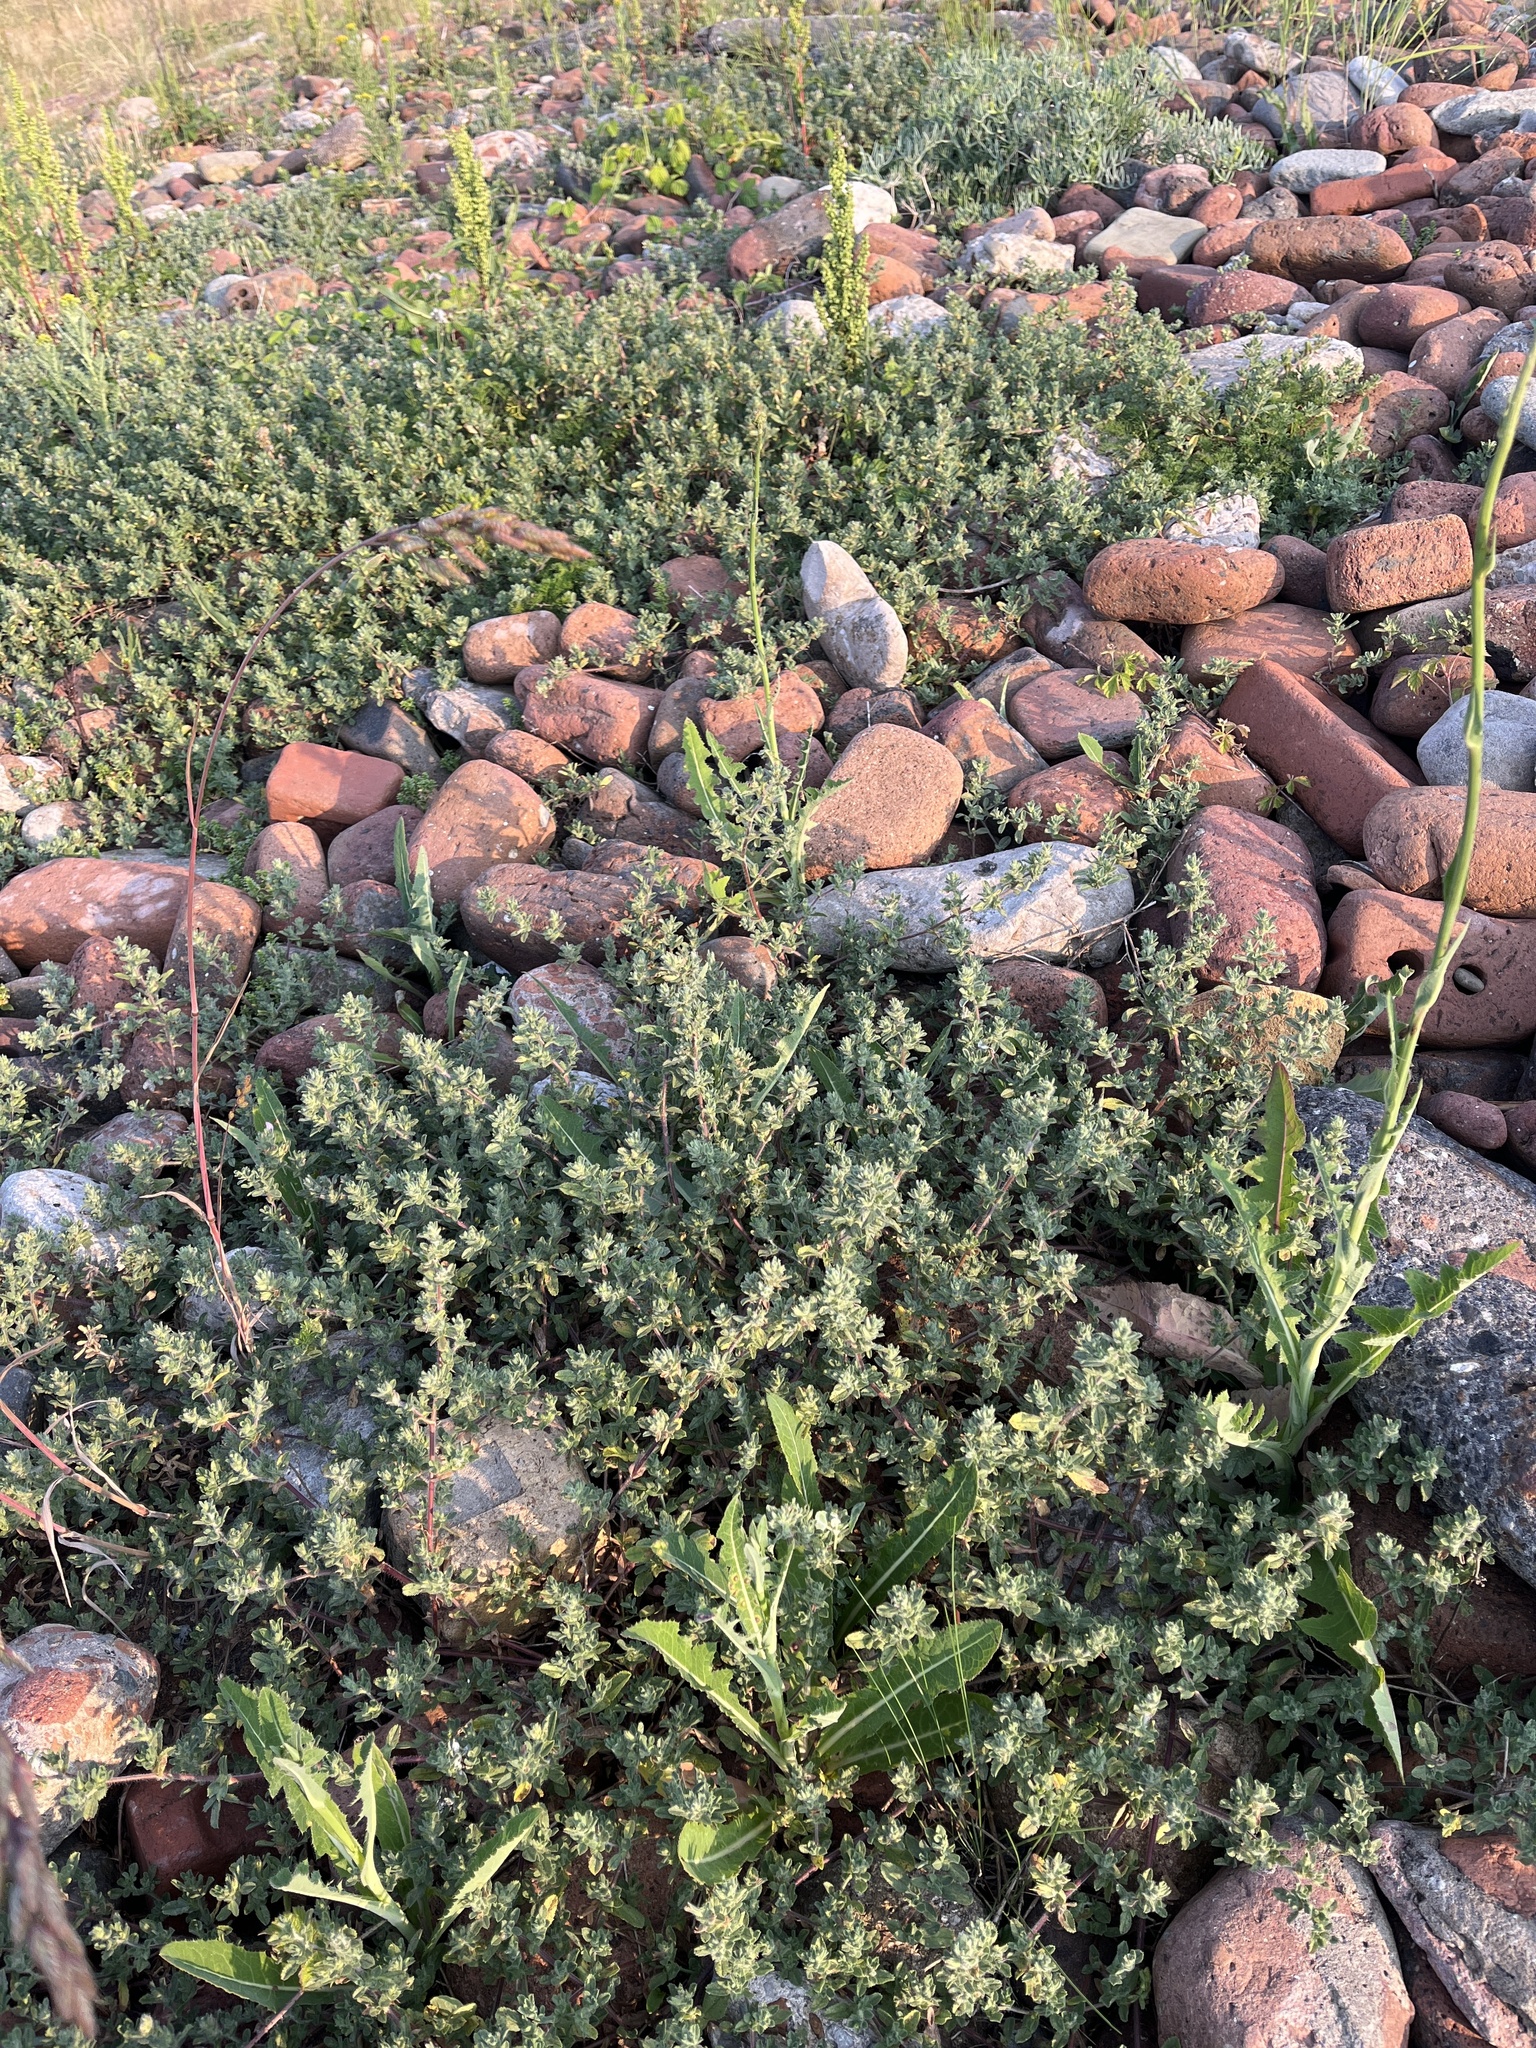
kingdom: Plantae
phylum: Tracheophyta
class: Magnoliopsida
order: Fabales
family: Fabaceae
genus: Ononis
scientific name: Ononis spinosa
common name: Spiny restharrow
